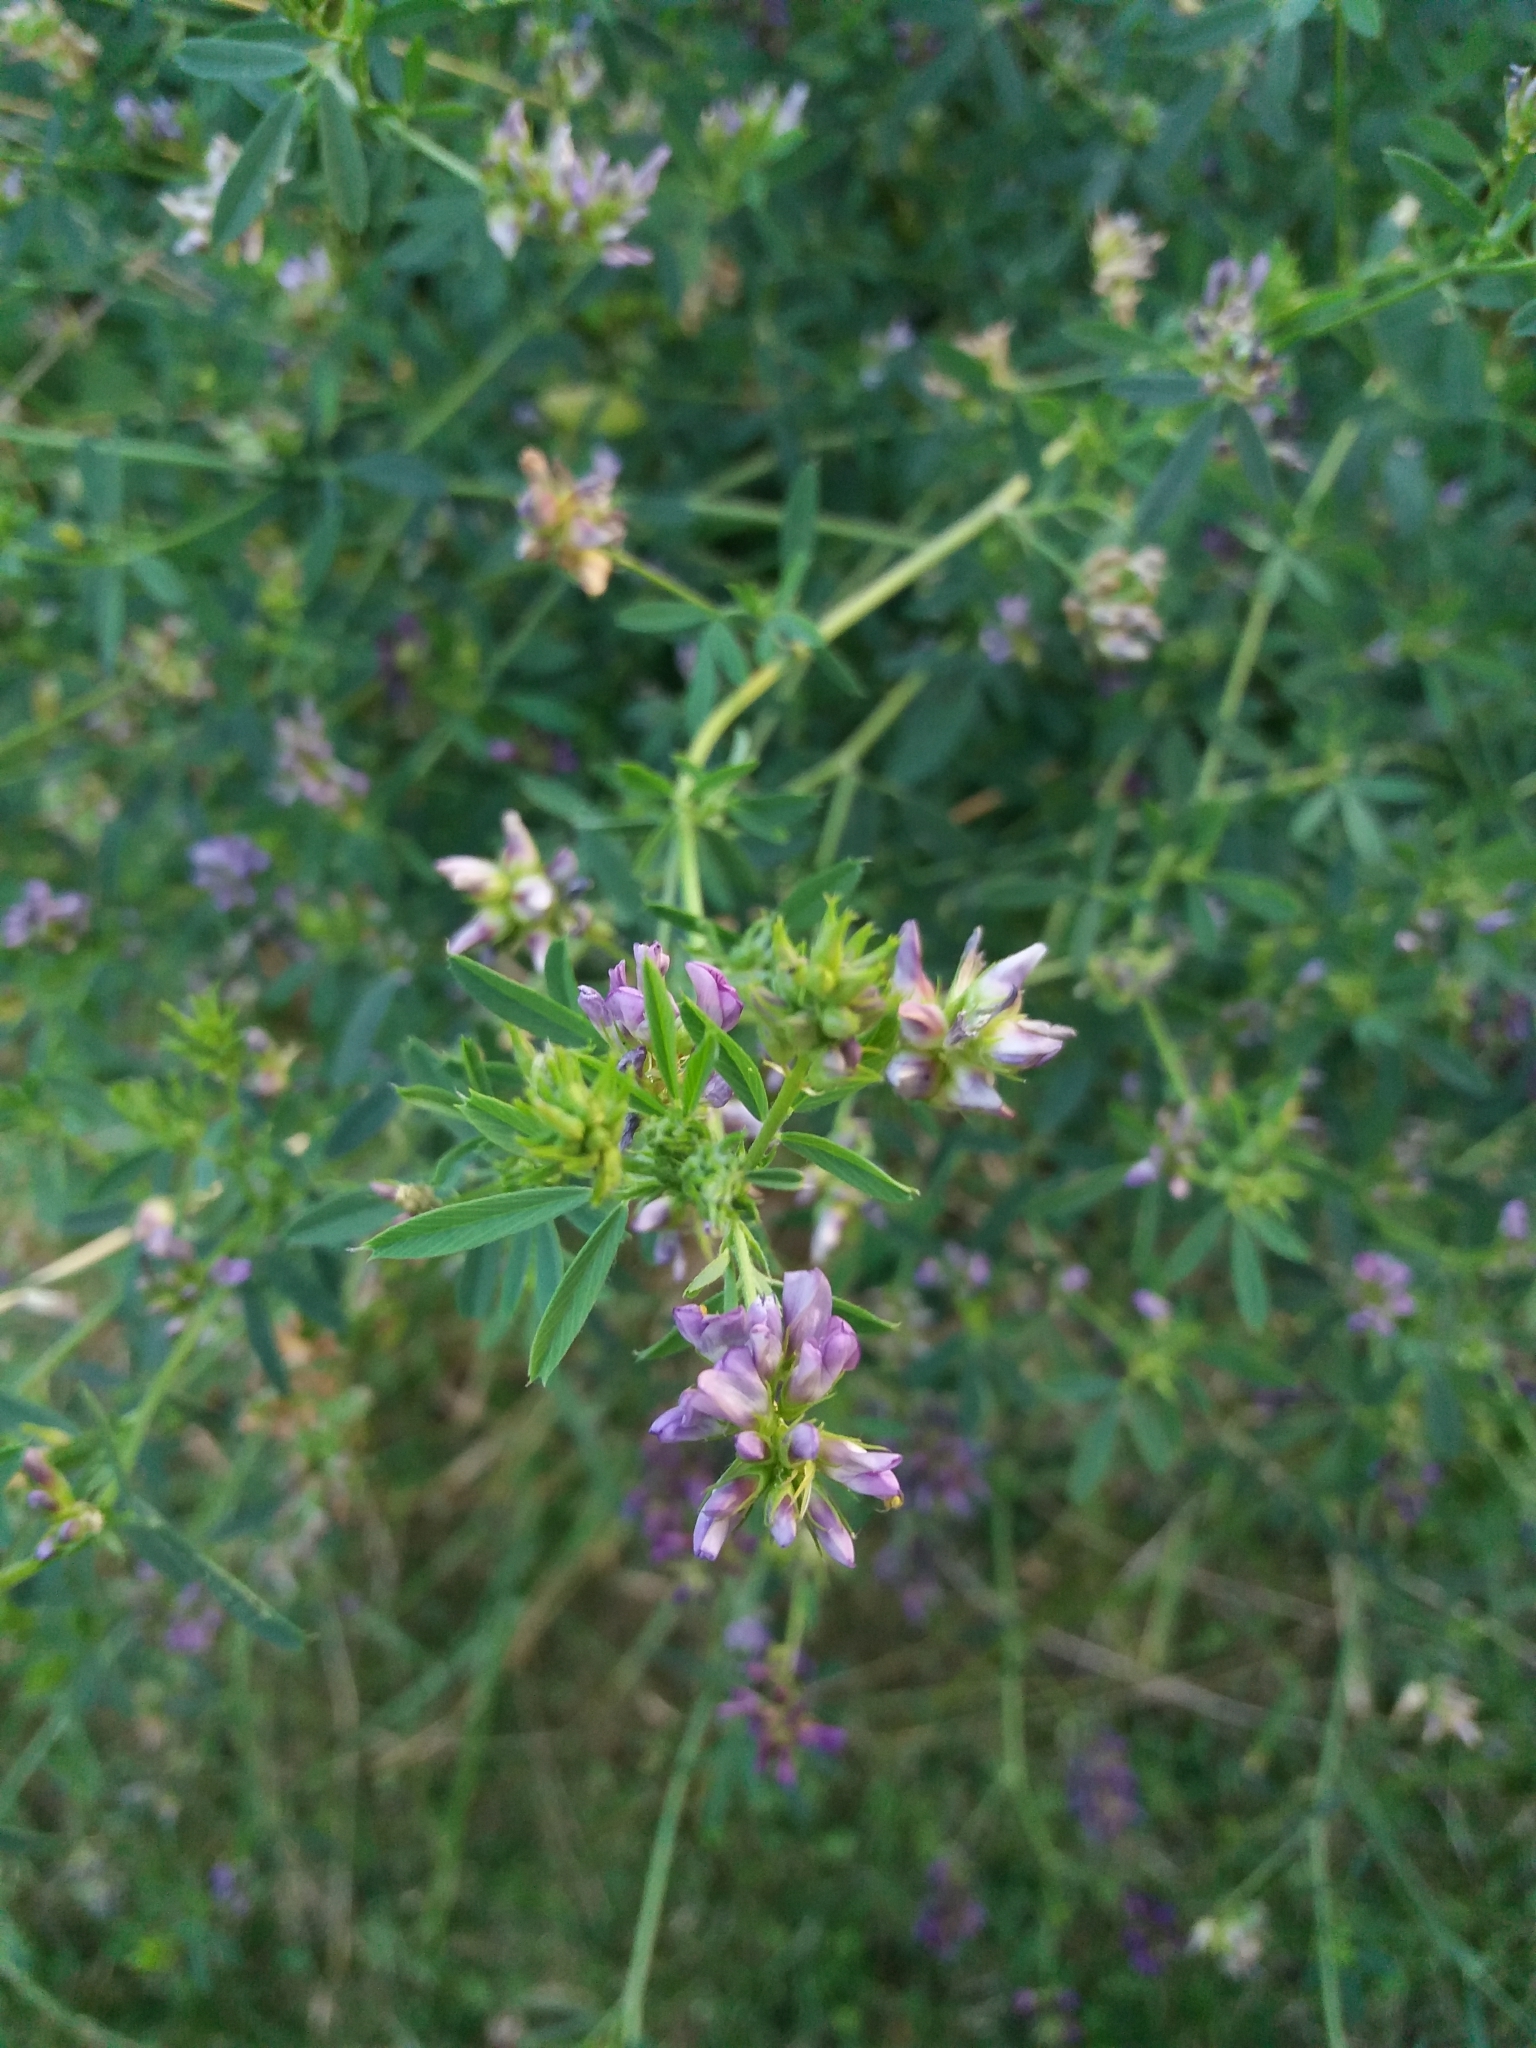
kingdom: Plantae
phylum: Tracheophyta
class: Magnoliopsida
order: Fabales
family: Fabaceae
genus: Medicago
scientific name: Medicago sativa
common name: Alfalfa
